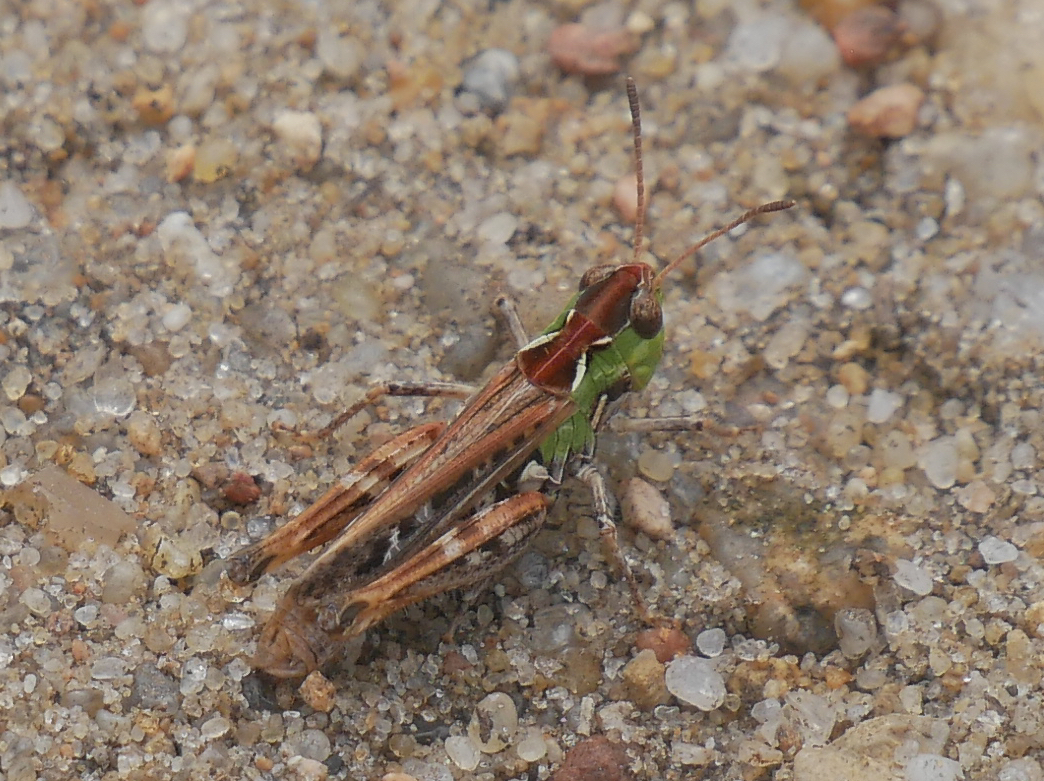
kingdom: Animalia
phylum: Arthropoda
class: Insecta
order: Orthoptera
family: Acrididae
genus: Myrmeleotettix
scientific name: Myrmeleotettix maculatus
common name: Mottled grasshopper
